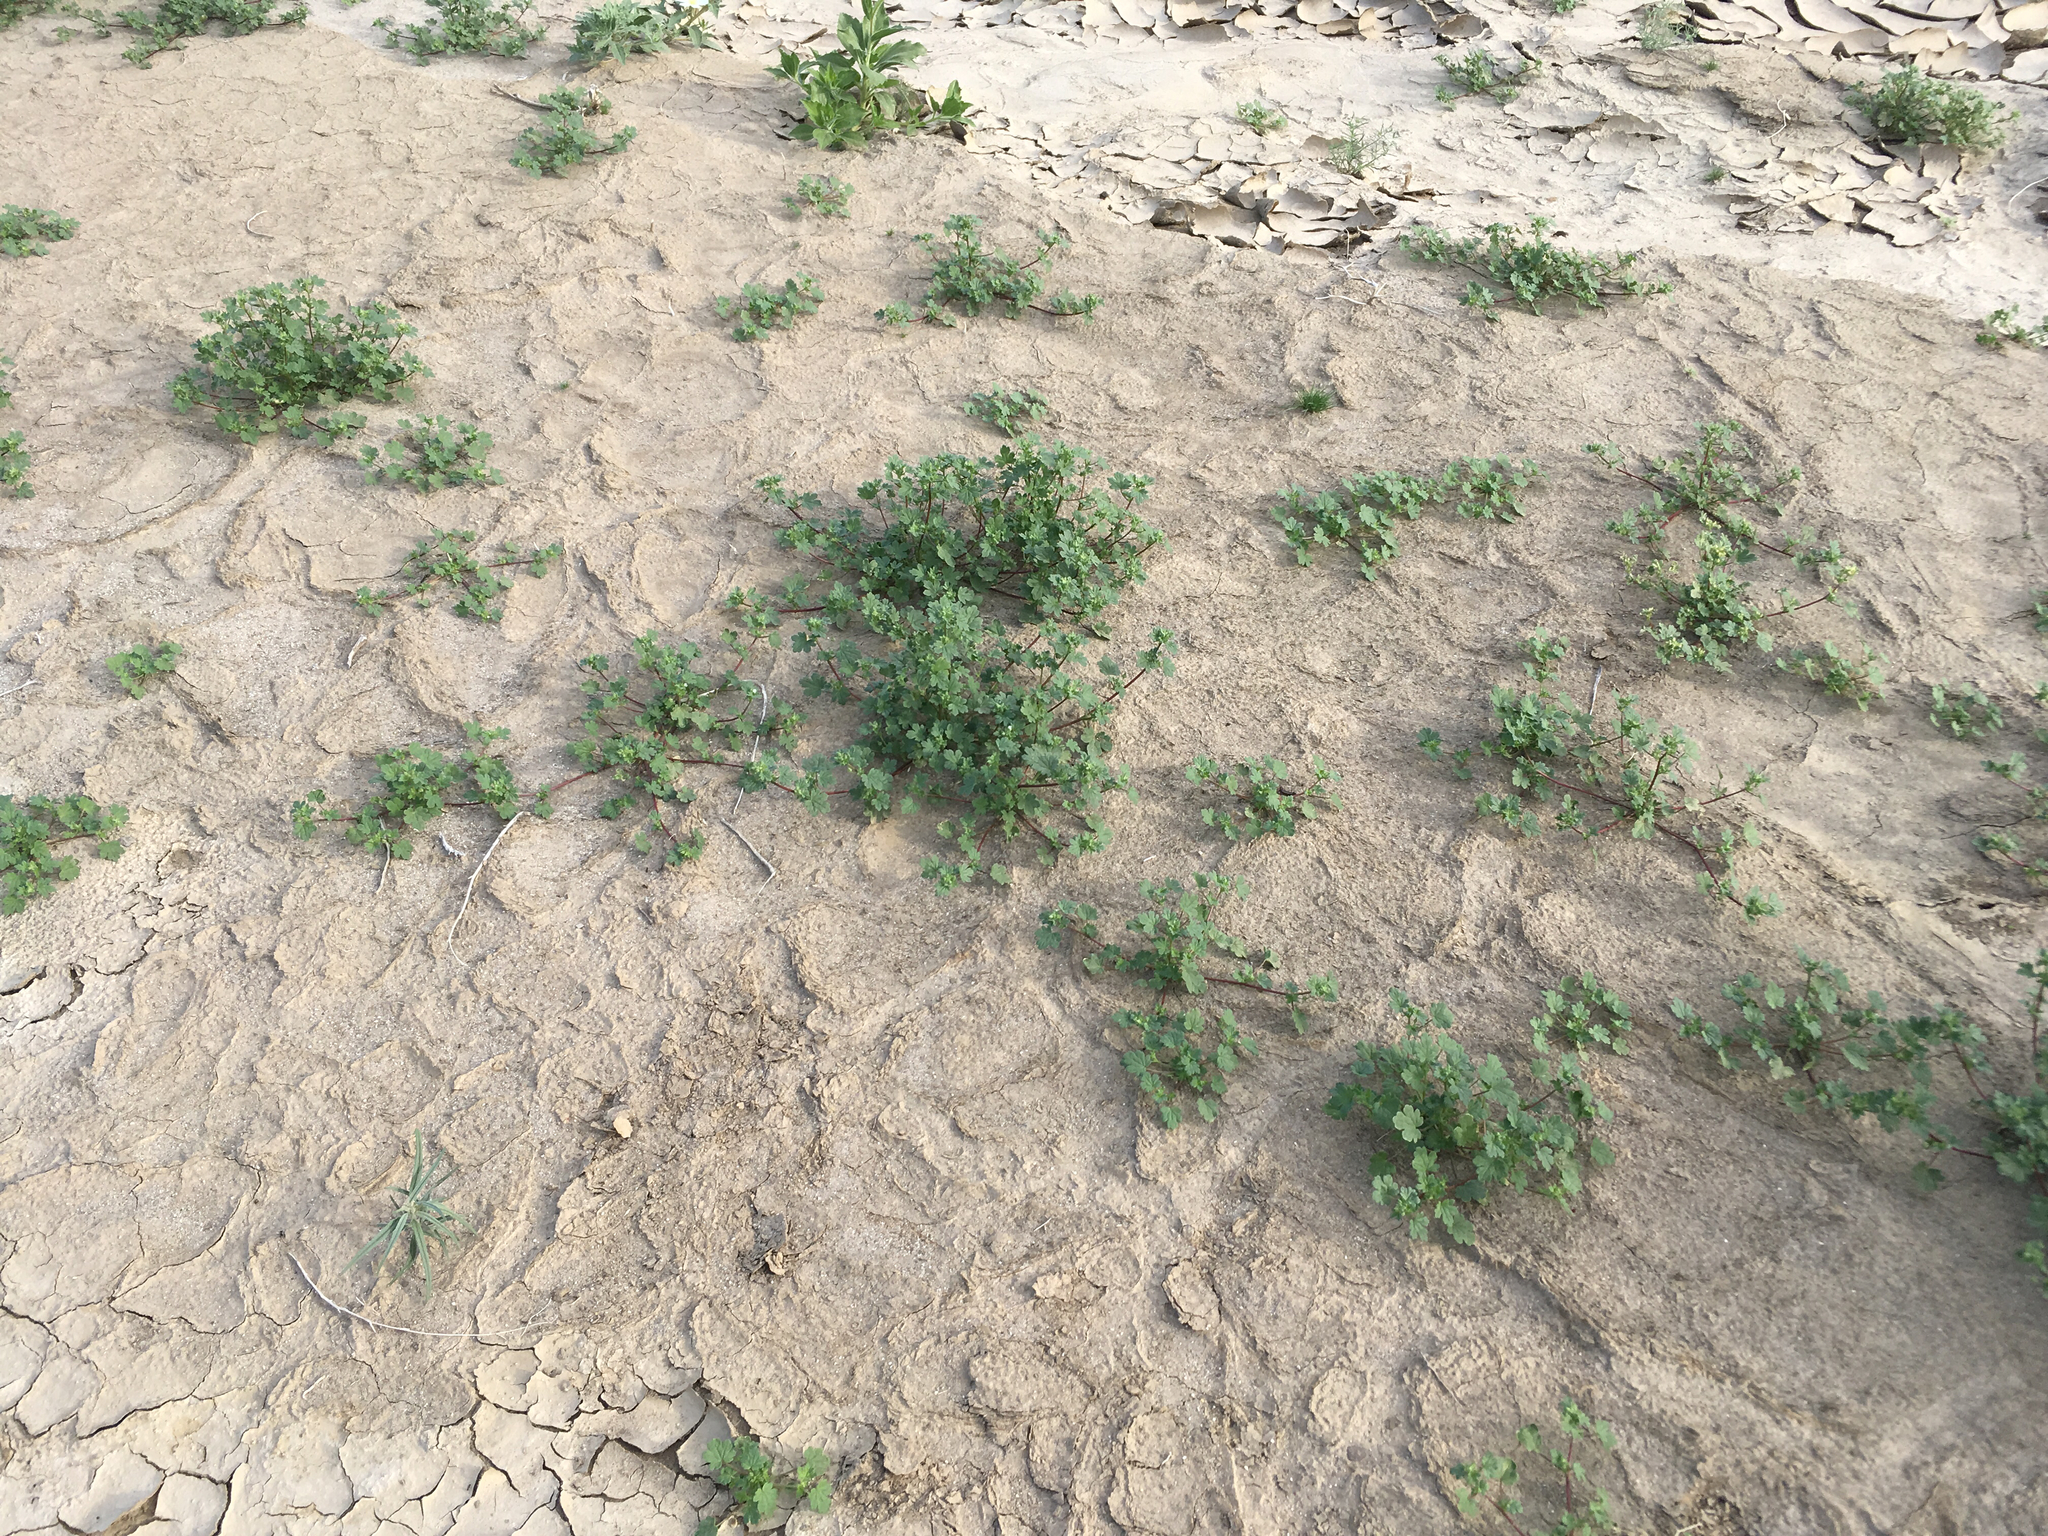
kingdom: Plantae
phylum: Tracheophyta
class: Magnoliopsida
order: Malvales
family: Malvaceae
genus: Eremalche
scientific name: Eremalche exilis
